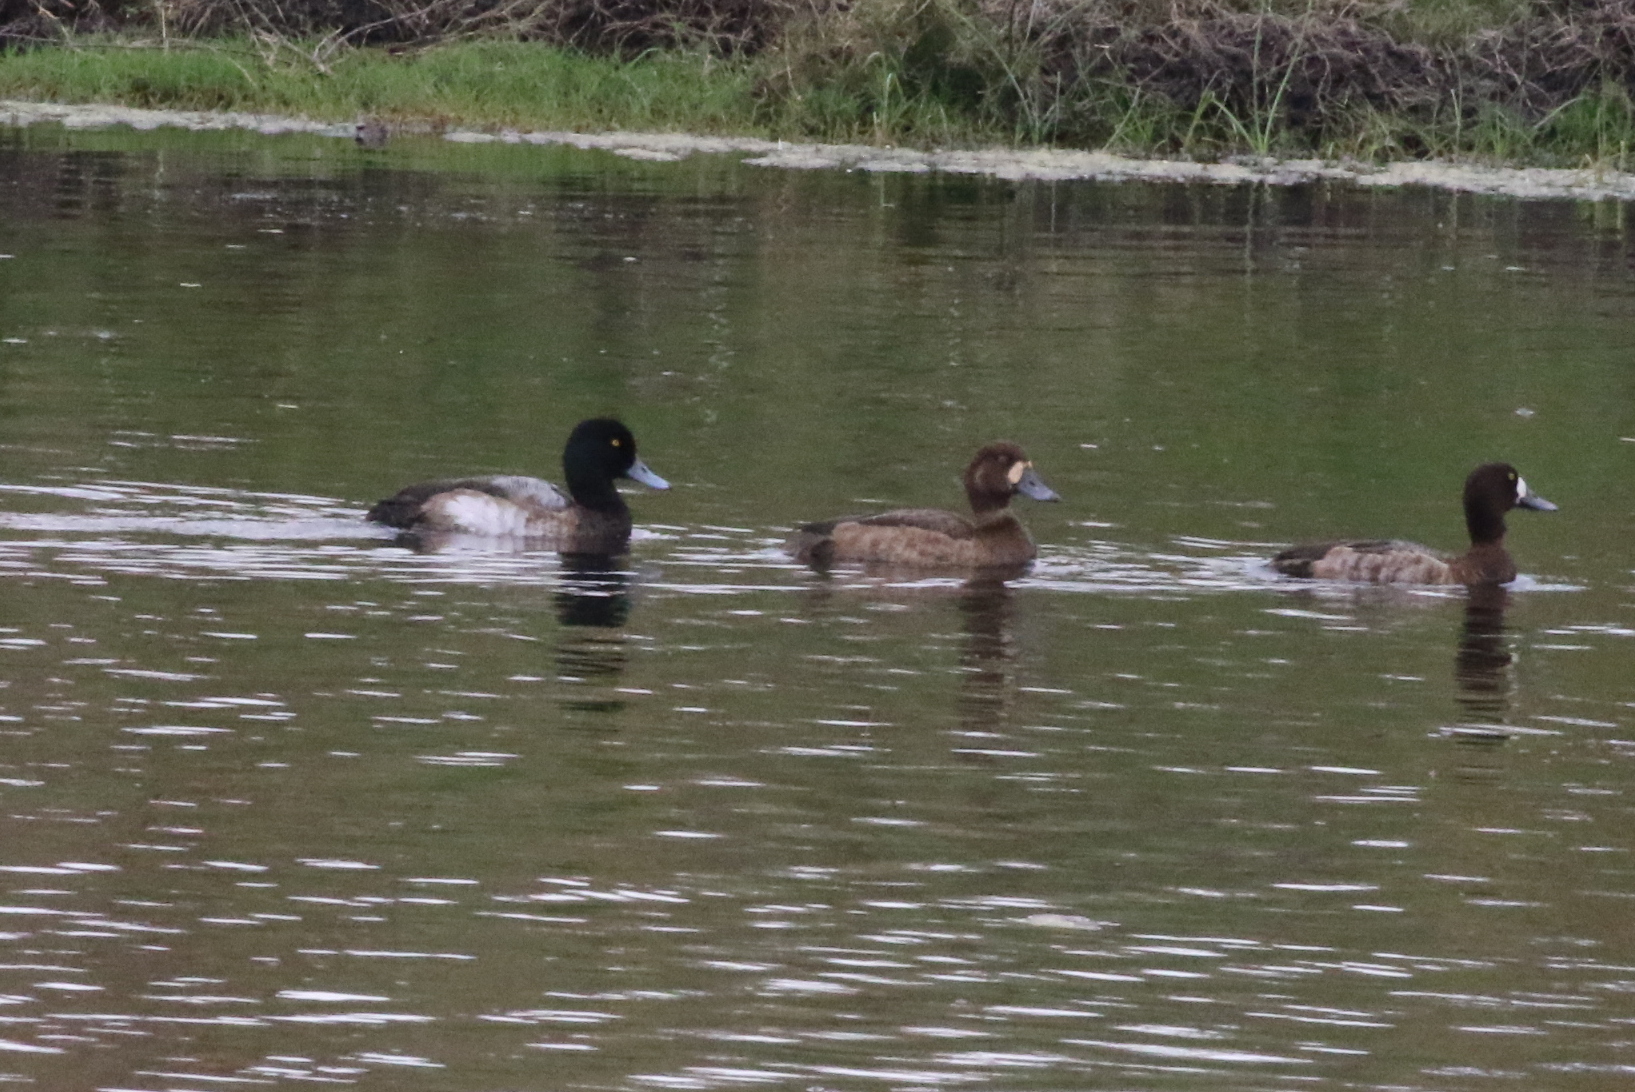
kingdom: Animalia
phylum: Chordata
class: Aves
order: Anseriformes
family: Anatidae
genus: Aythya
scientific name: Aythya affinis
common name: Lesser scaup
